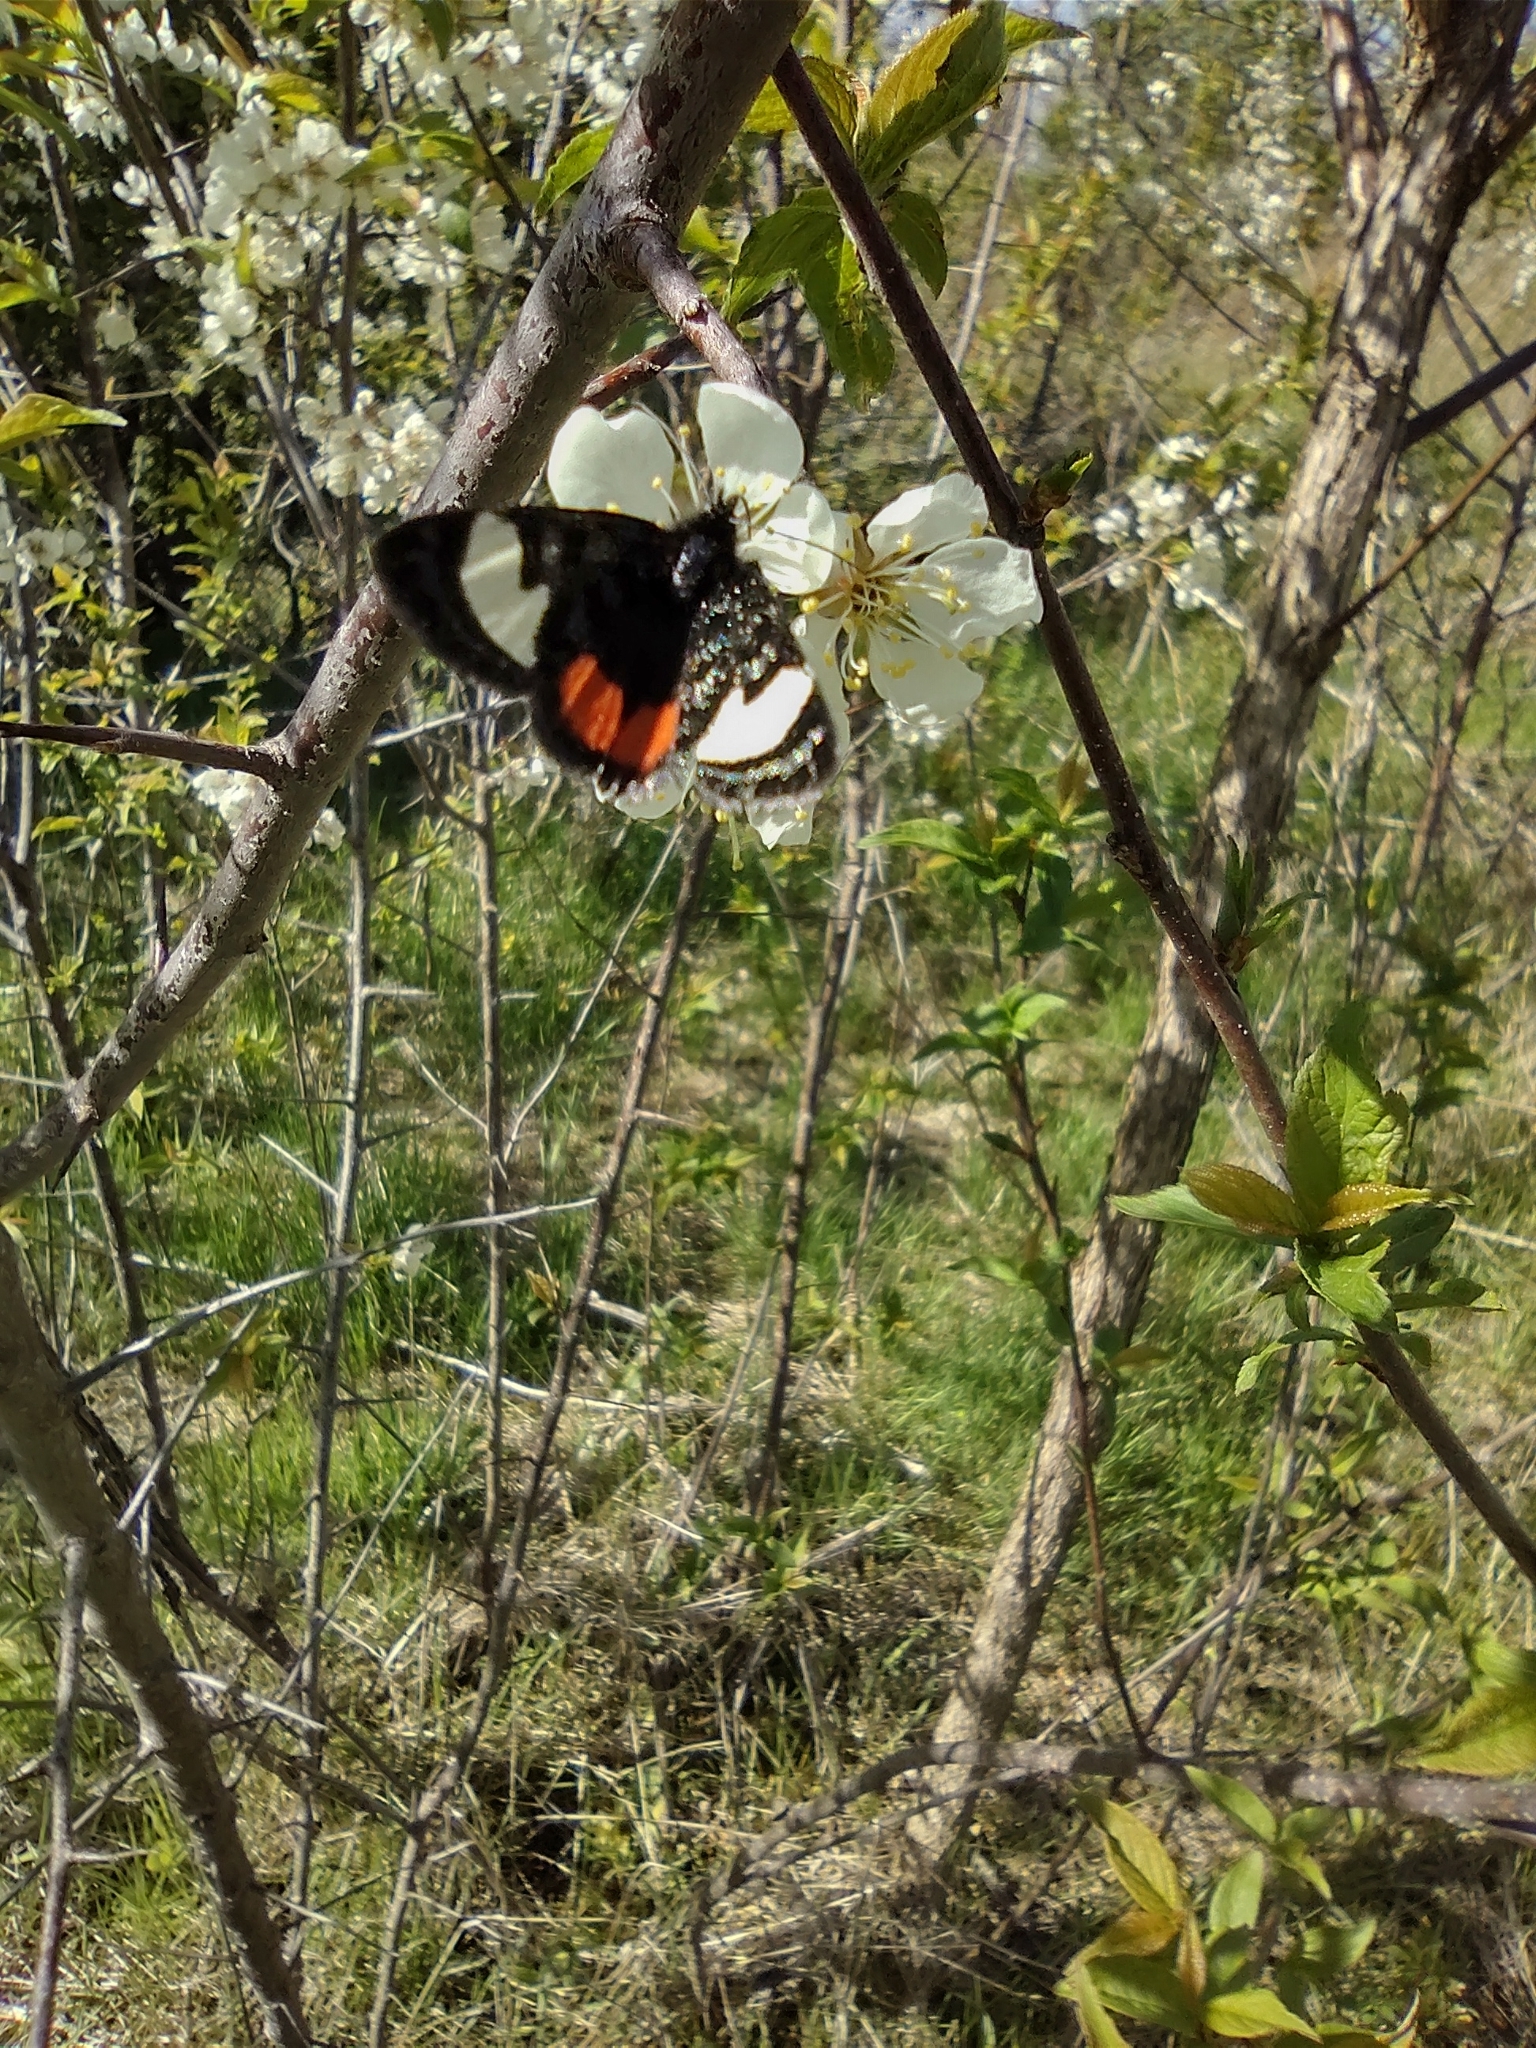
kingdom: Animalia
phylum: Arthropoda
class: Insecta
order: Lepidoptera
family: Noctuidae
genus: Psychomorpha
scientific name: Psychomorpha epimenis
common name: Grapevine epimenis moth
